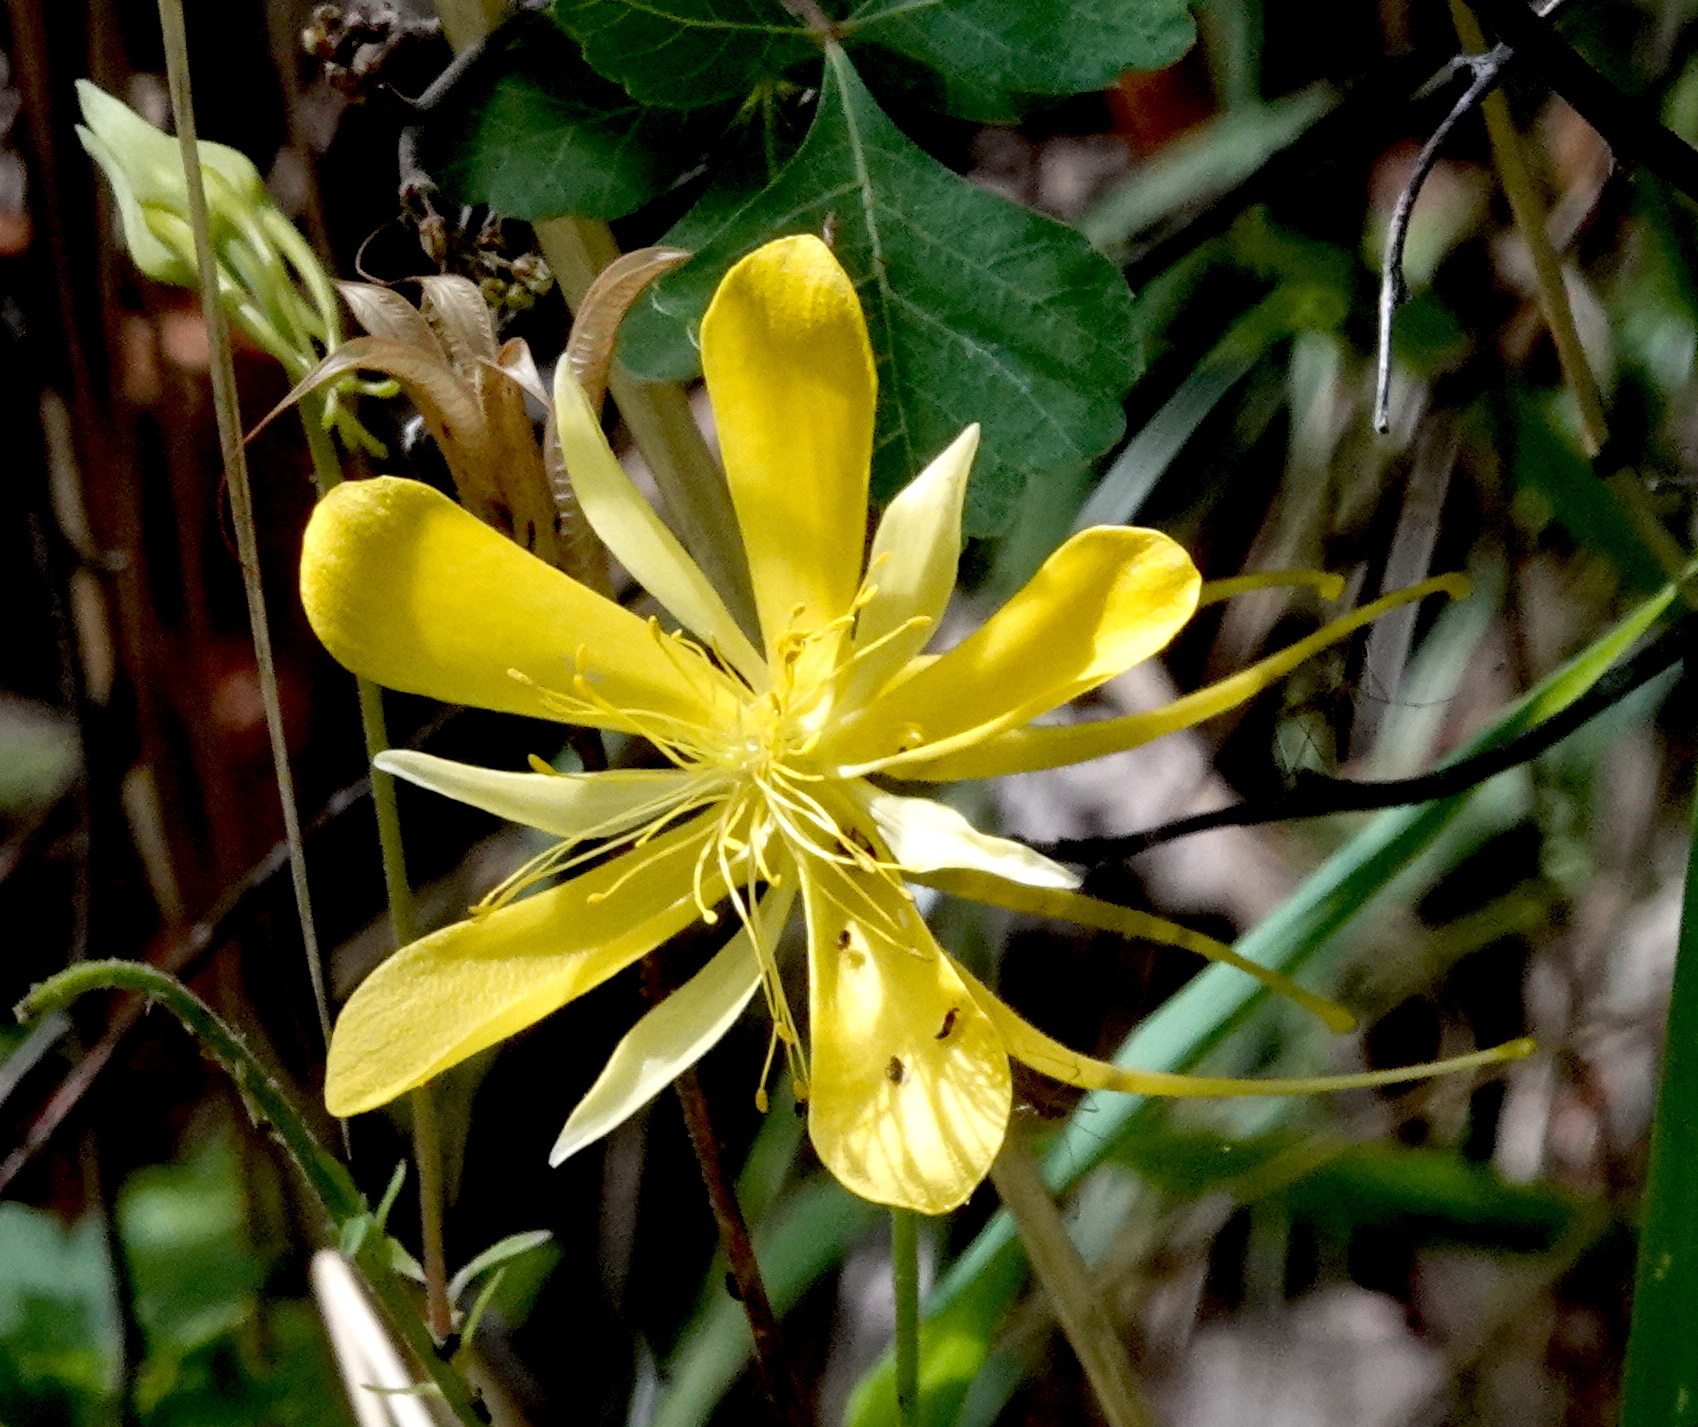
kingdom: Plantae
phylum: Tracheophyta
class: Magnoliopsida
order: Ranunculales
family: Ranunculaceae
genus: Aquilegia
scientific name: Aquilegia chrysantha
